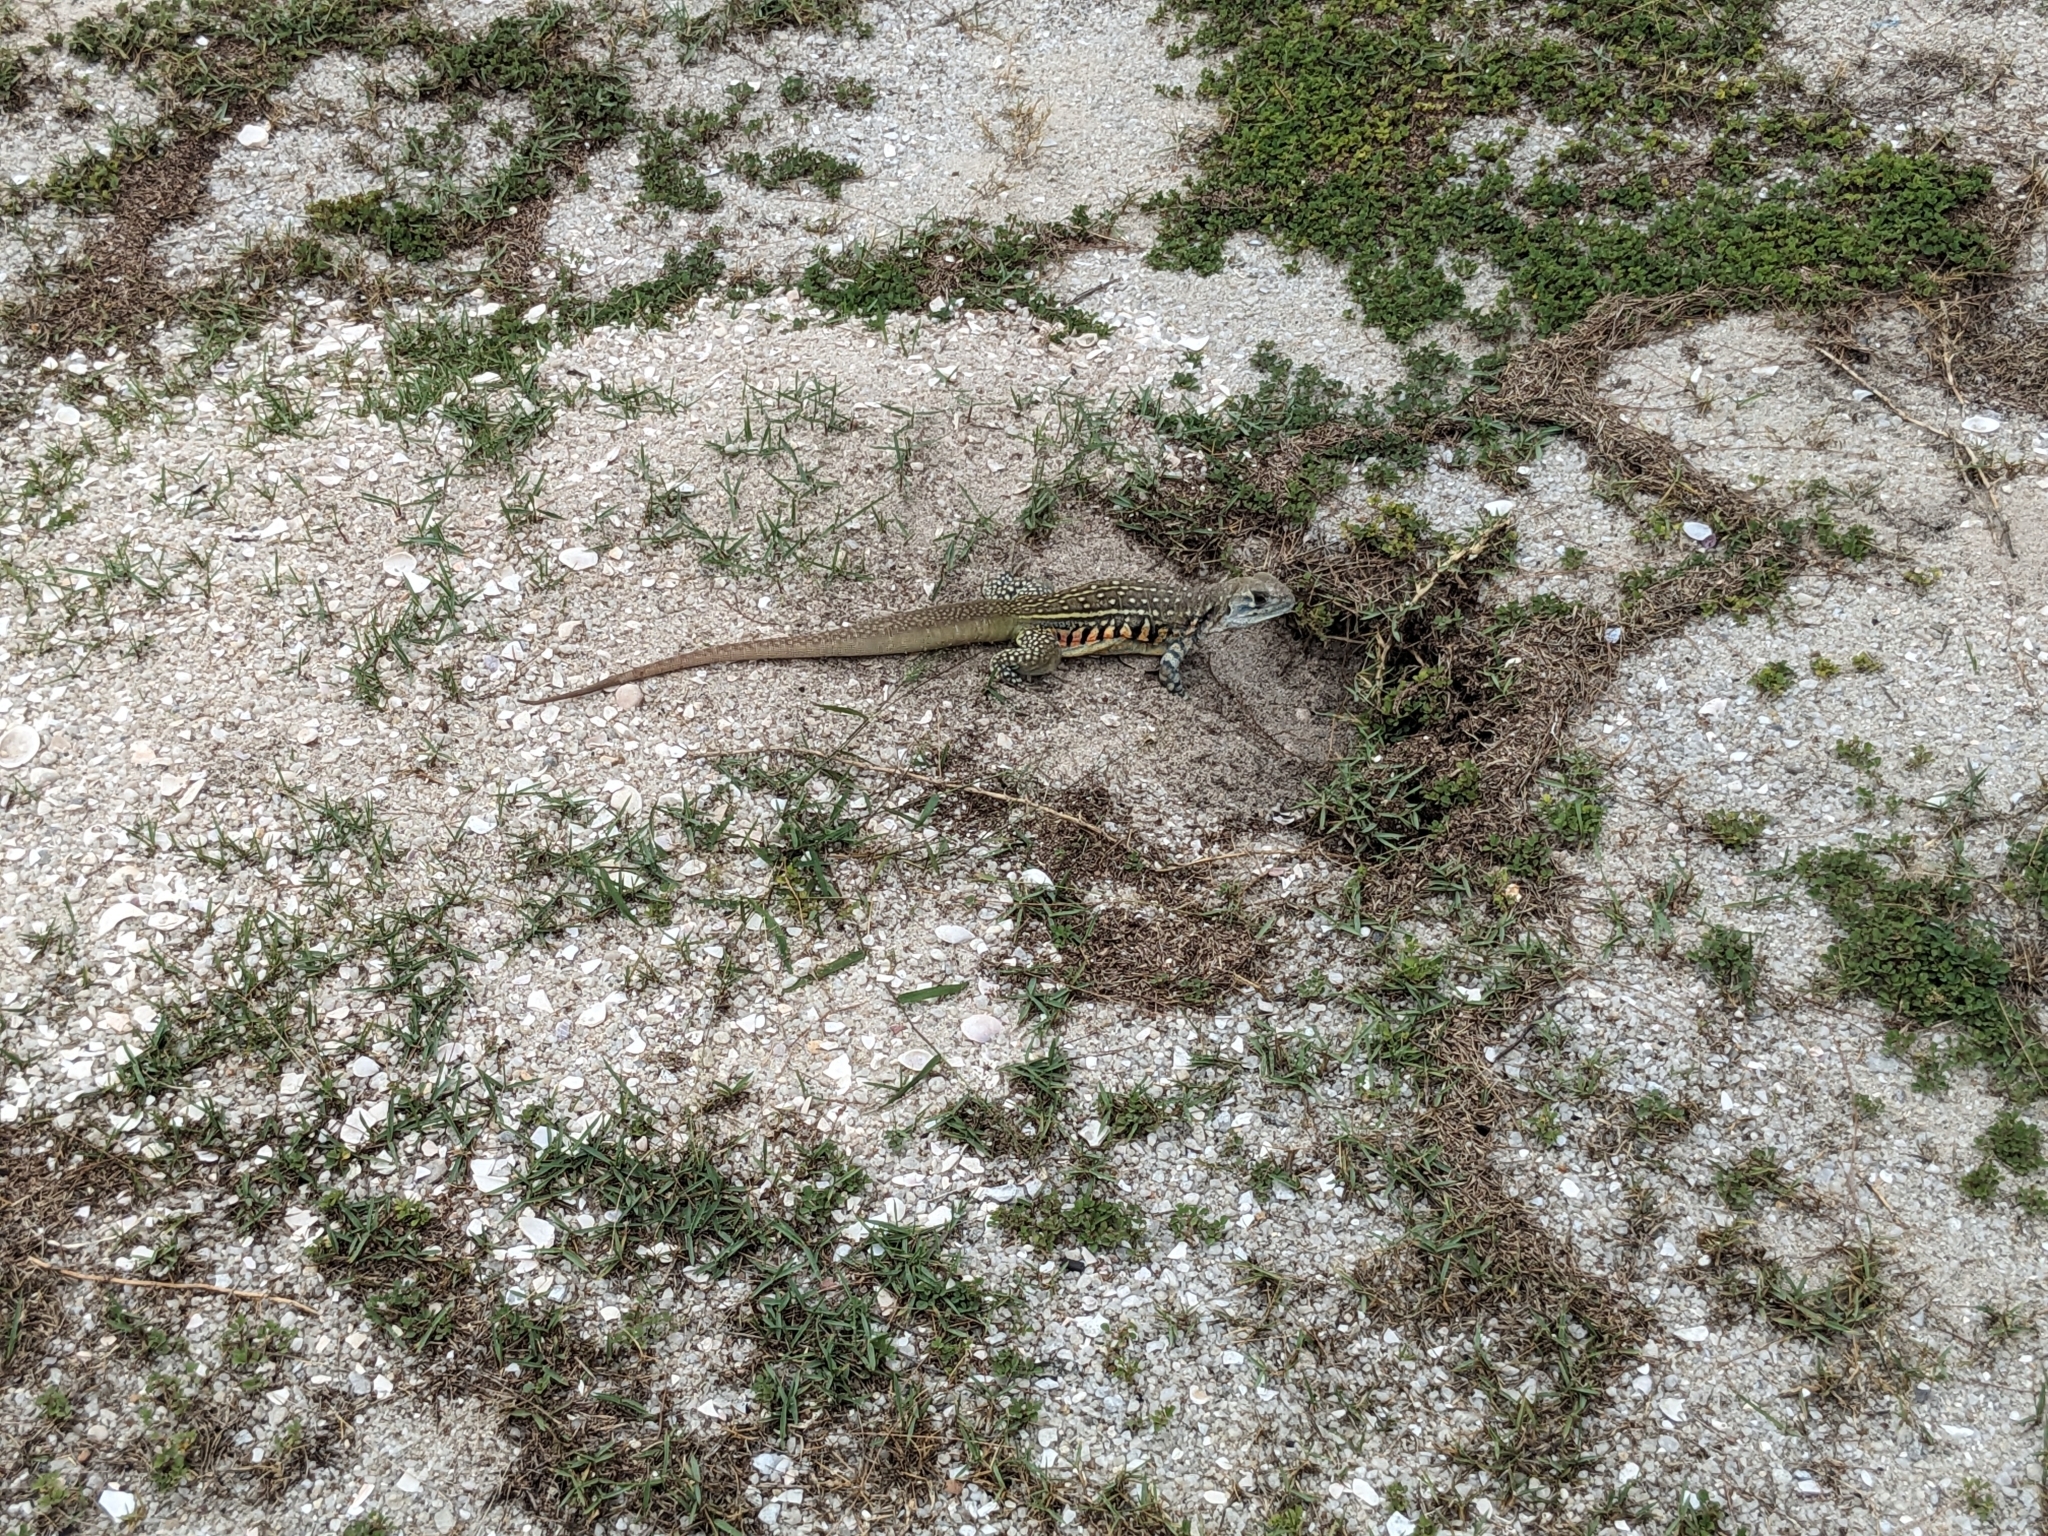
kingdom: Animalia
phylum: Chordata
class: Squamata
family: Agamidae
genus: Leiolepis
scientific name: Leiolepis belliana
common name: Common butterfly lizard
